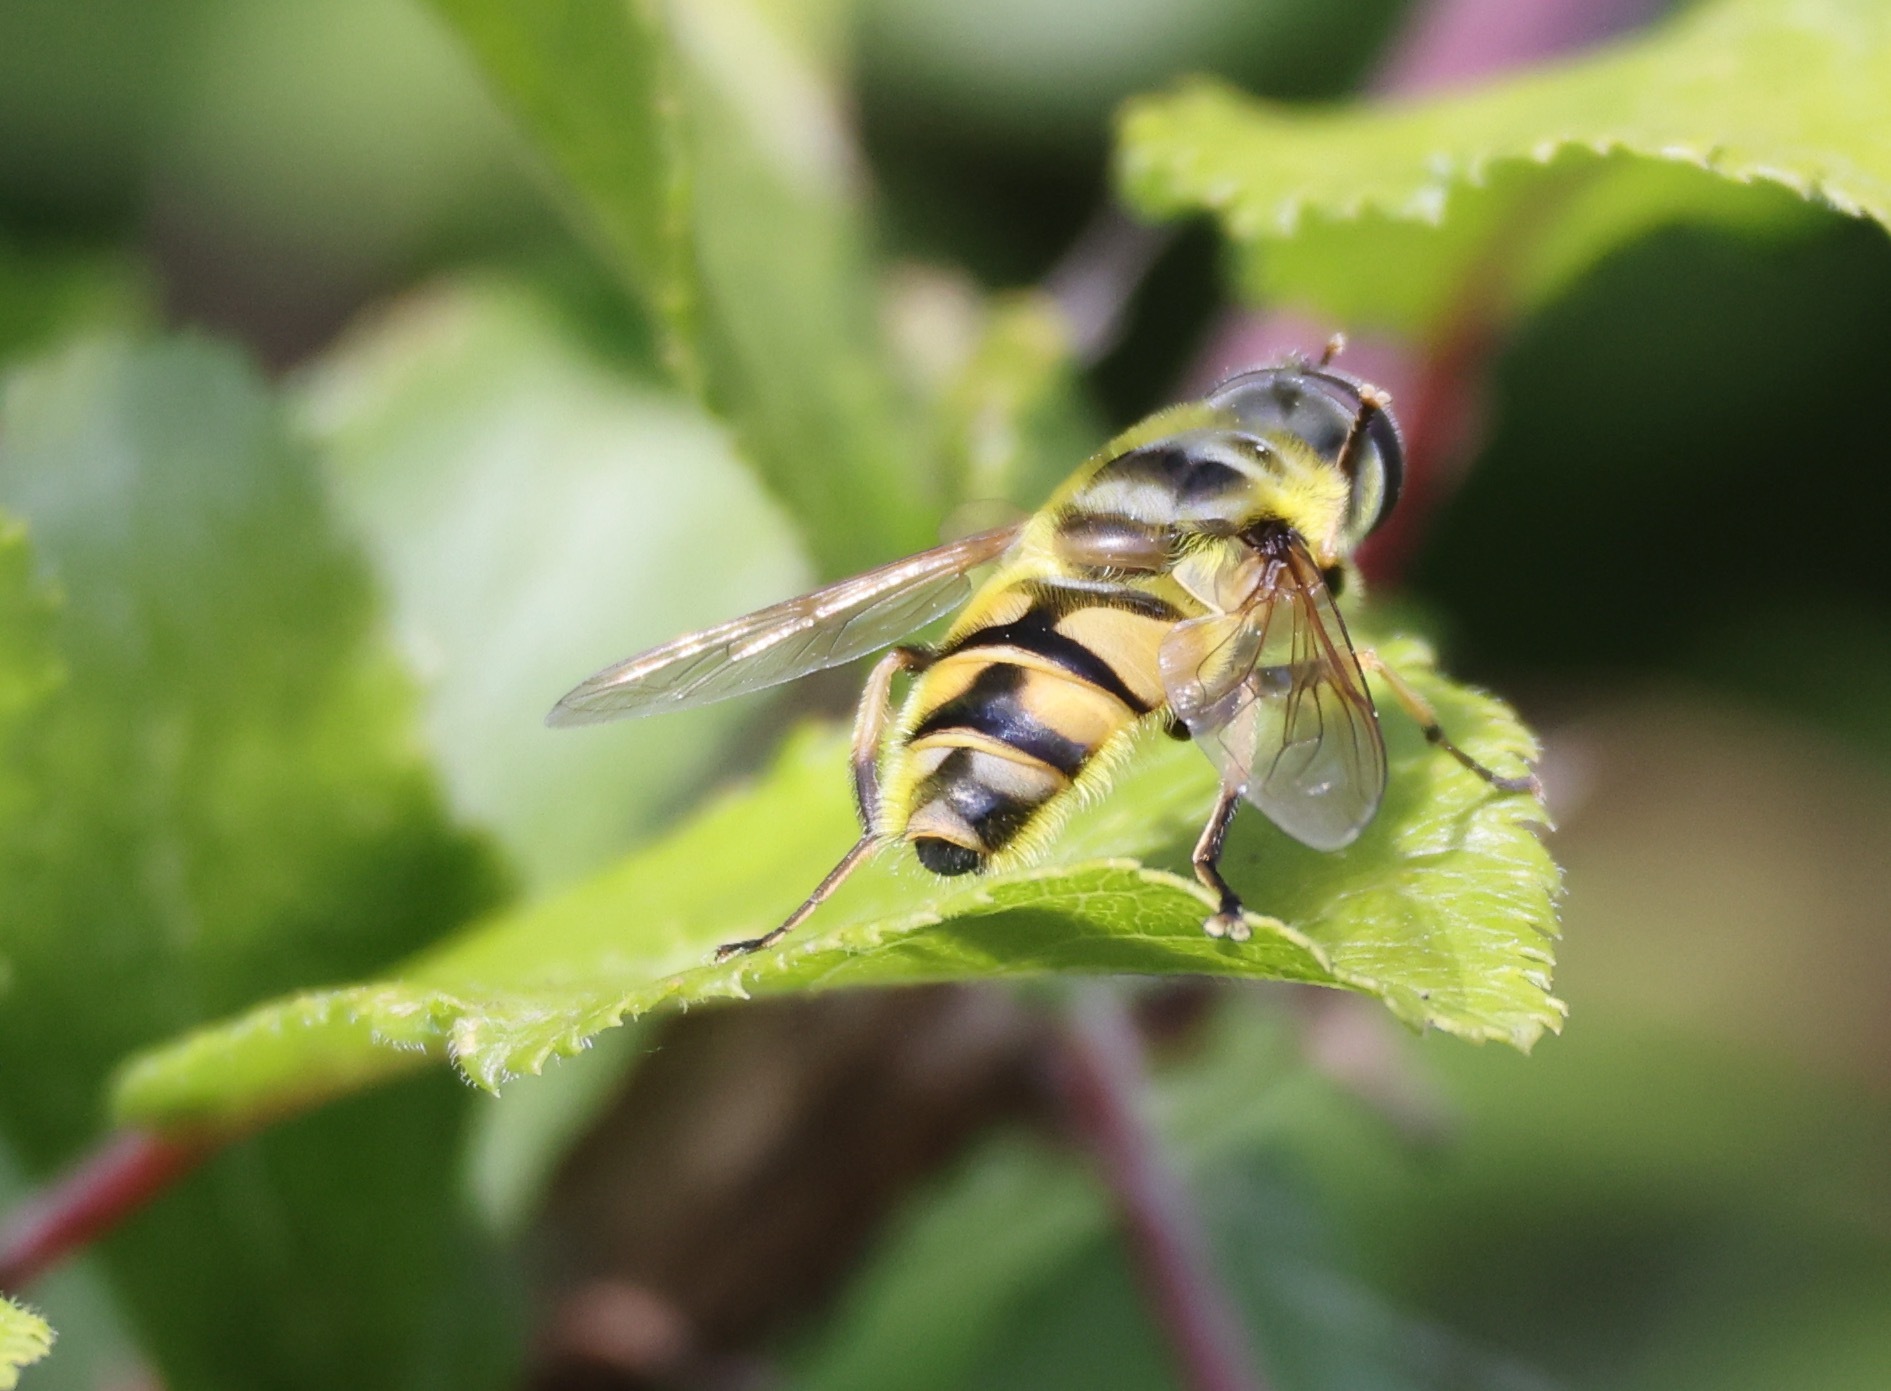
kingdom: Animalia
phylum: Arthropoda
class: Insecta
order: Diptera
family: Syrphidae
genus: Myathropa
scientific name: Myathropa florea
